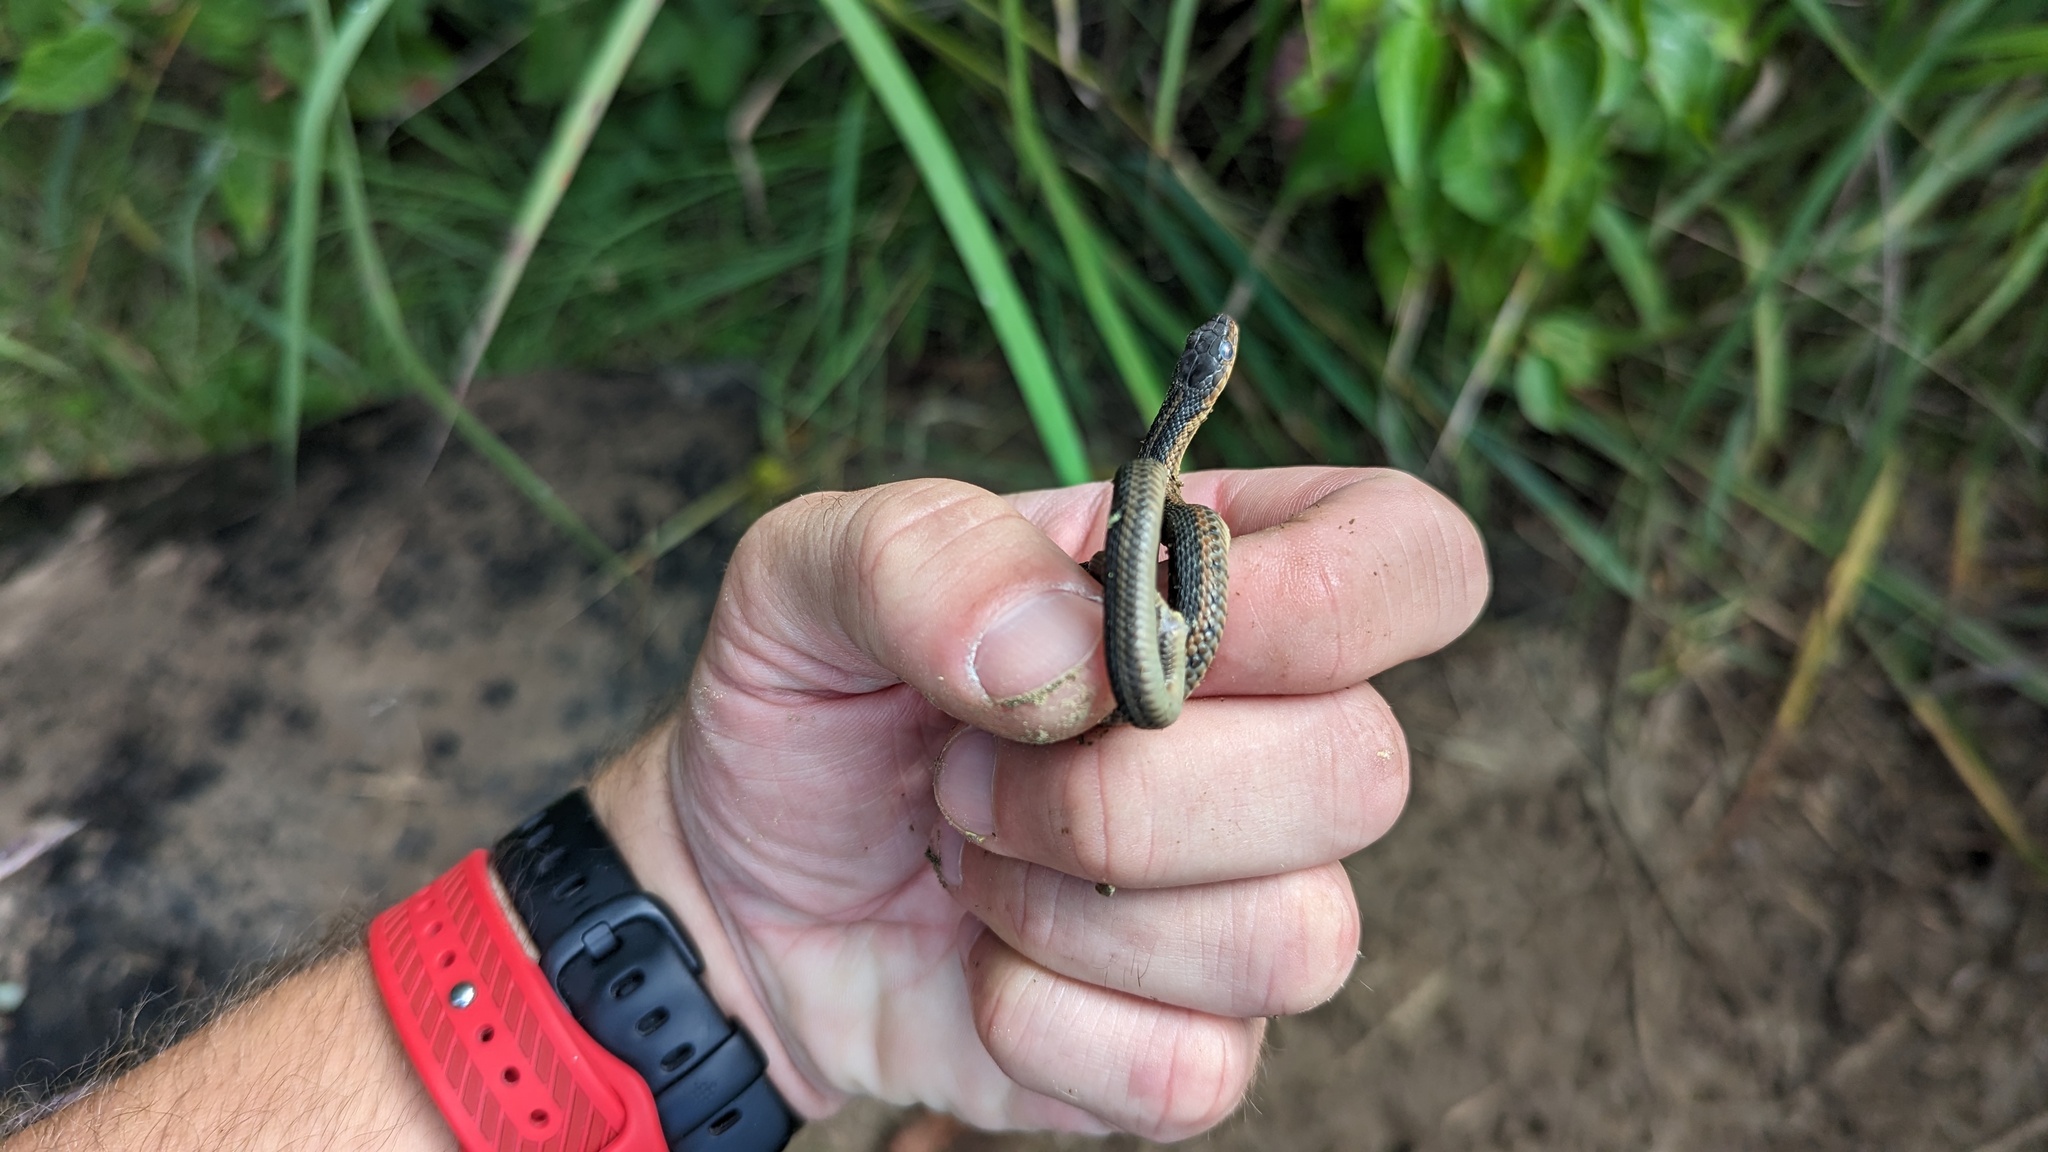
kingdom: Animalia
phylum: Chordata
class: Squamata
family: Colubridae
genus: Thamnophis
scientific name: Thamnophis sirtalis
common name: Common garter snake
